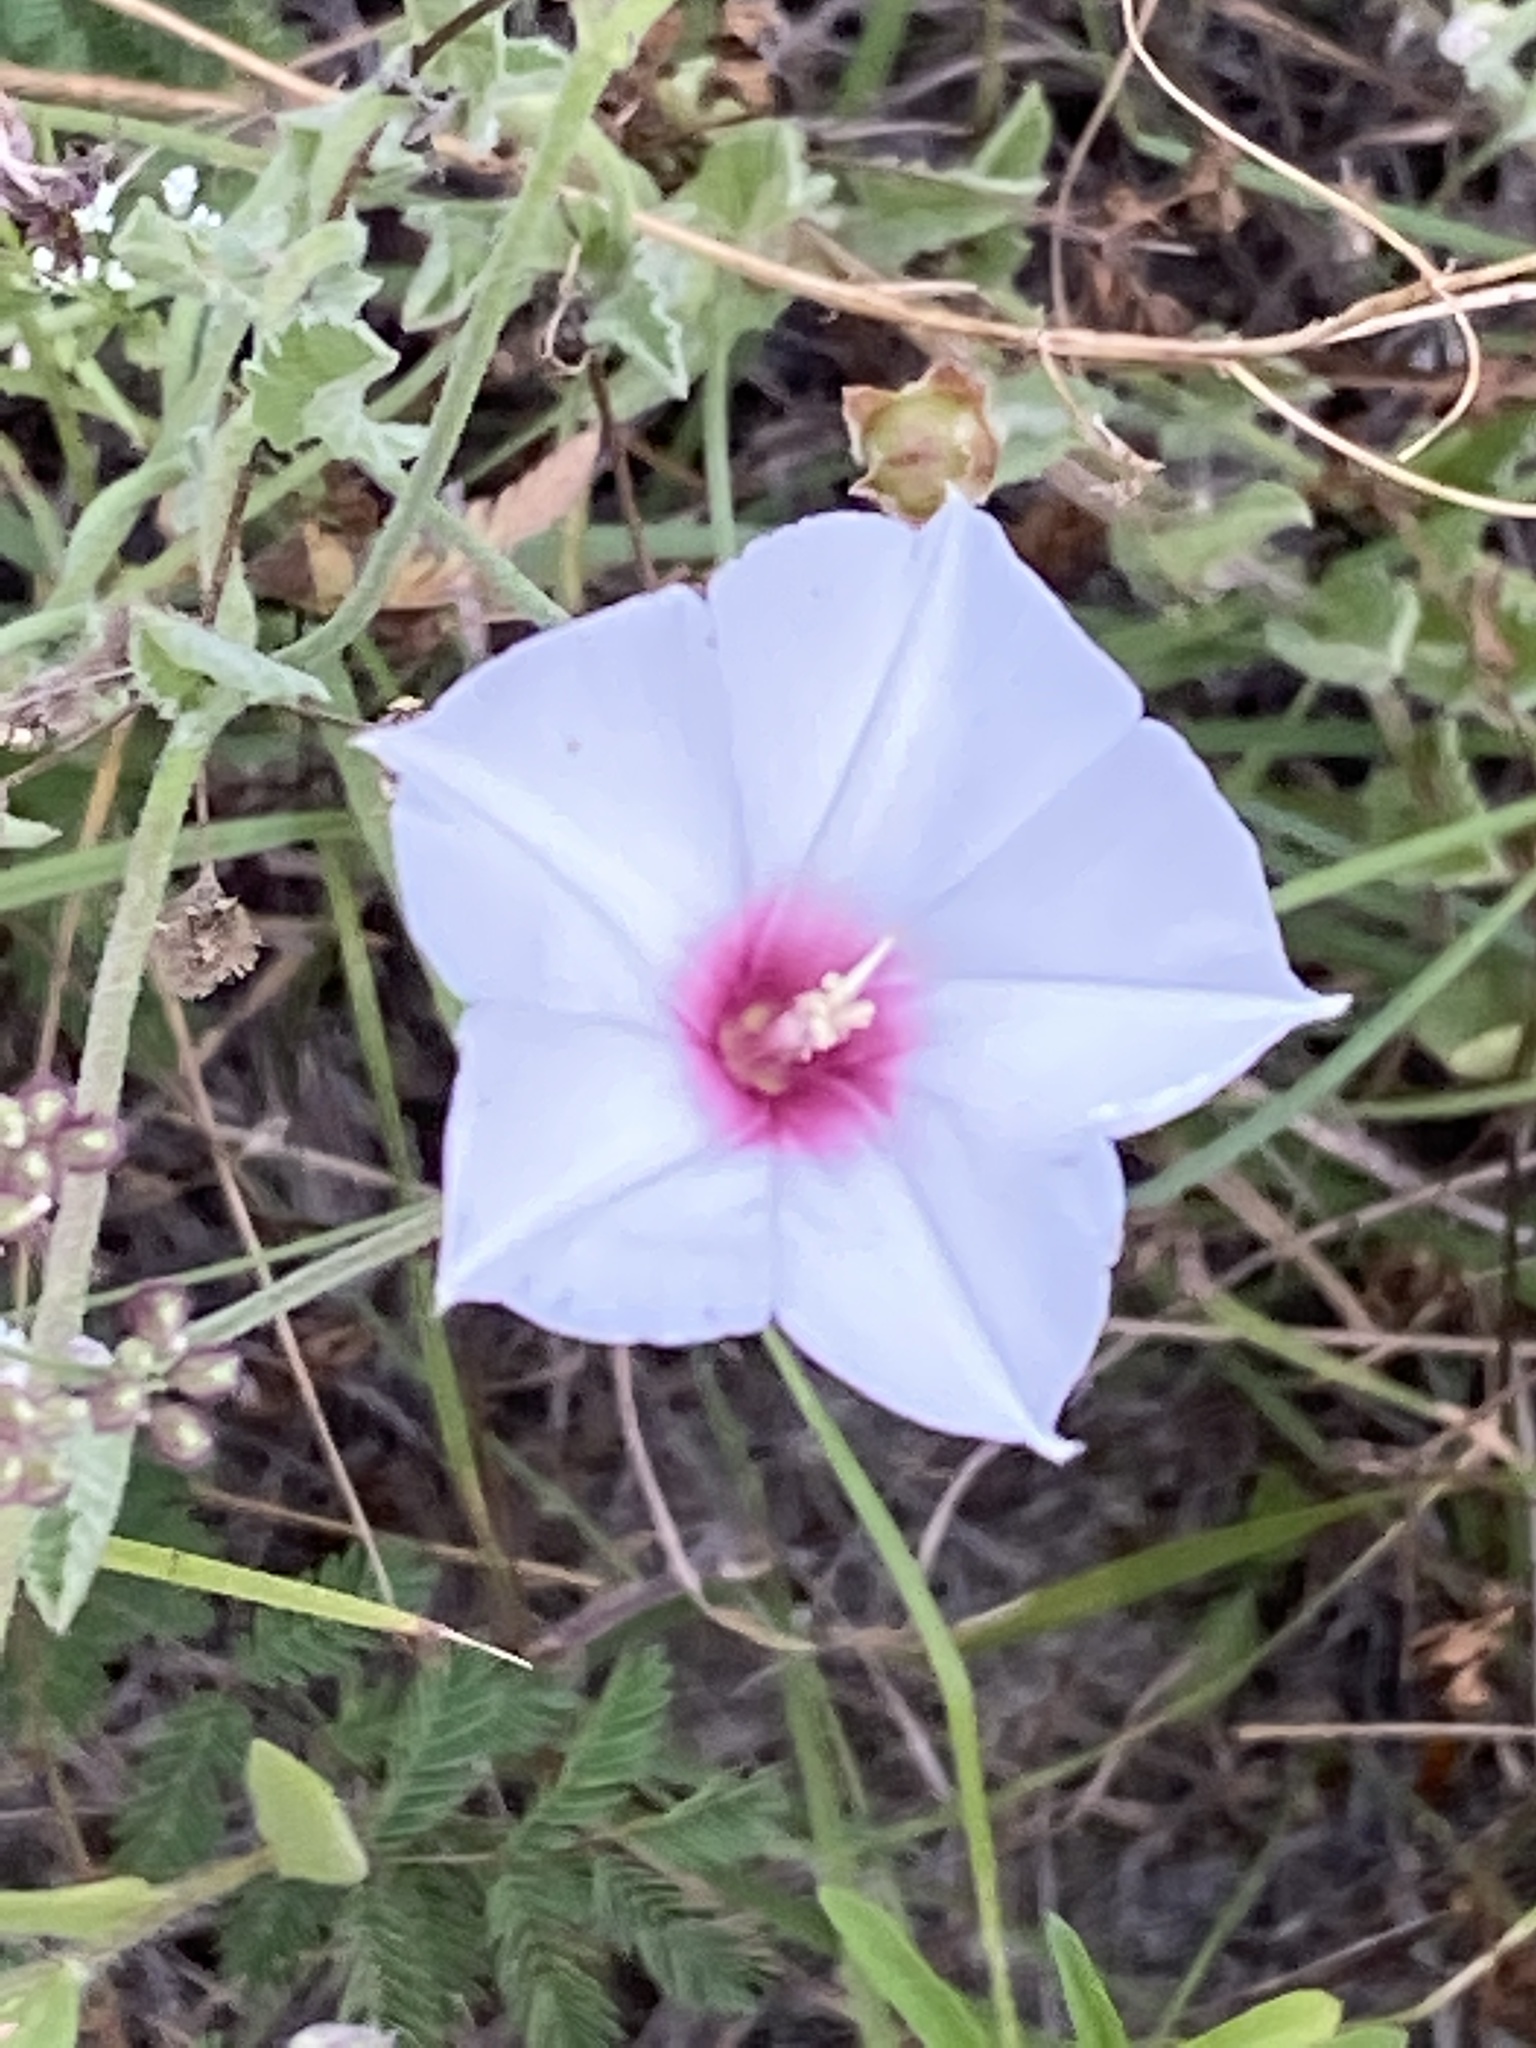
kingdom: Plantae
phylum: Tracheophyta
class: Magnoliopsida
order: Solanales
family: Convolvulaceae
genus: Convolvulus
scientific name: Convolvulus equitans
